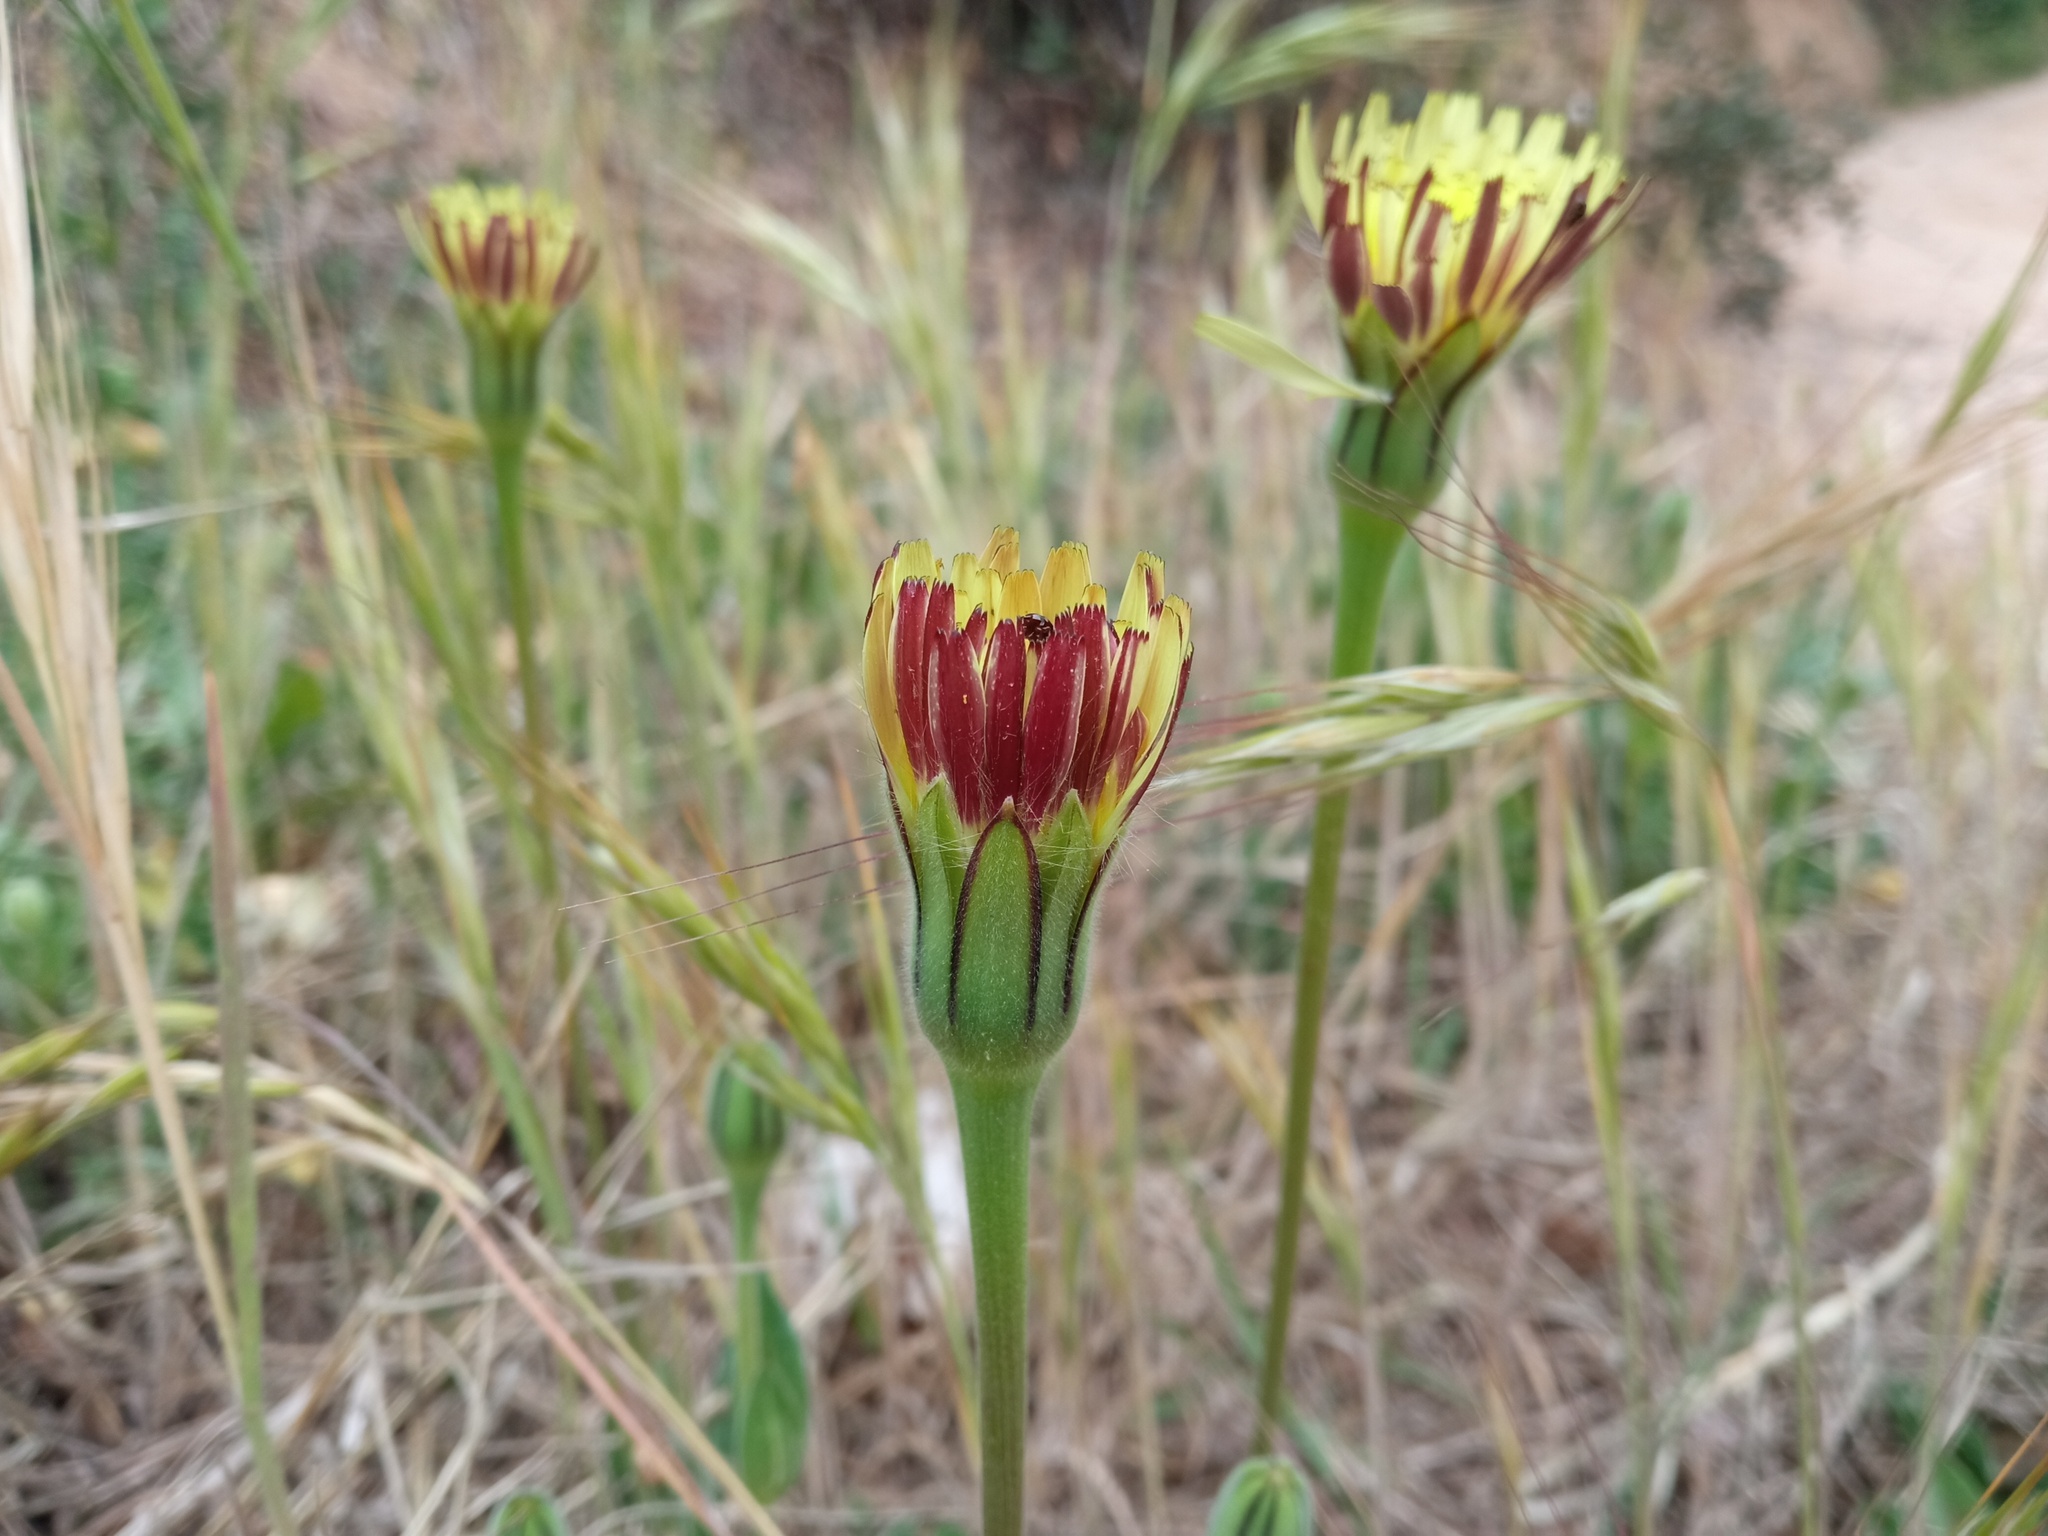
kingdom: Plantae
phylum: Tracheophyta
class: Magnoliopsida
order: Asterales
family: Asteraceae
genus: Urospermum
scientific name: Urospermum dalechampii
